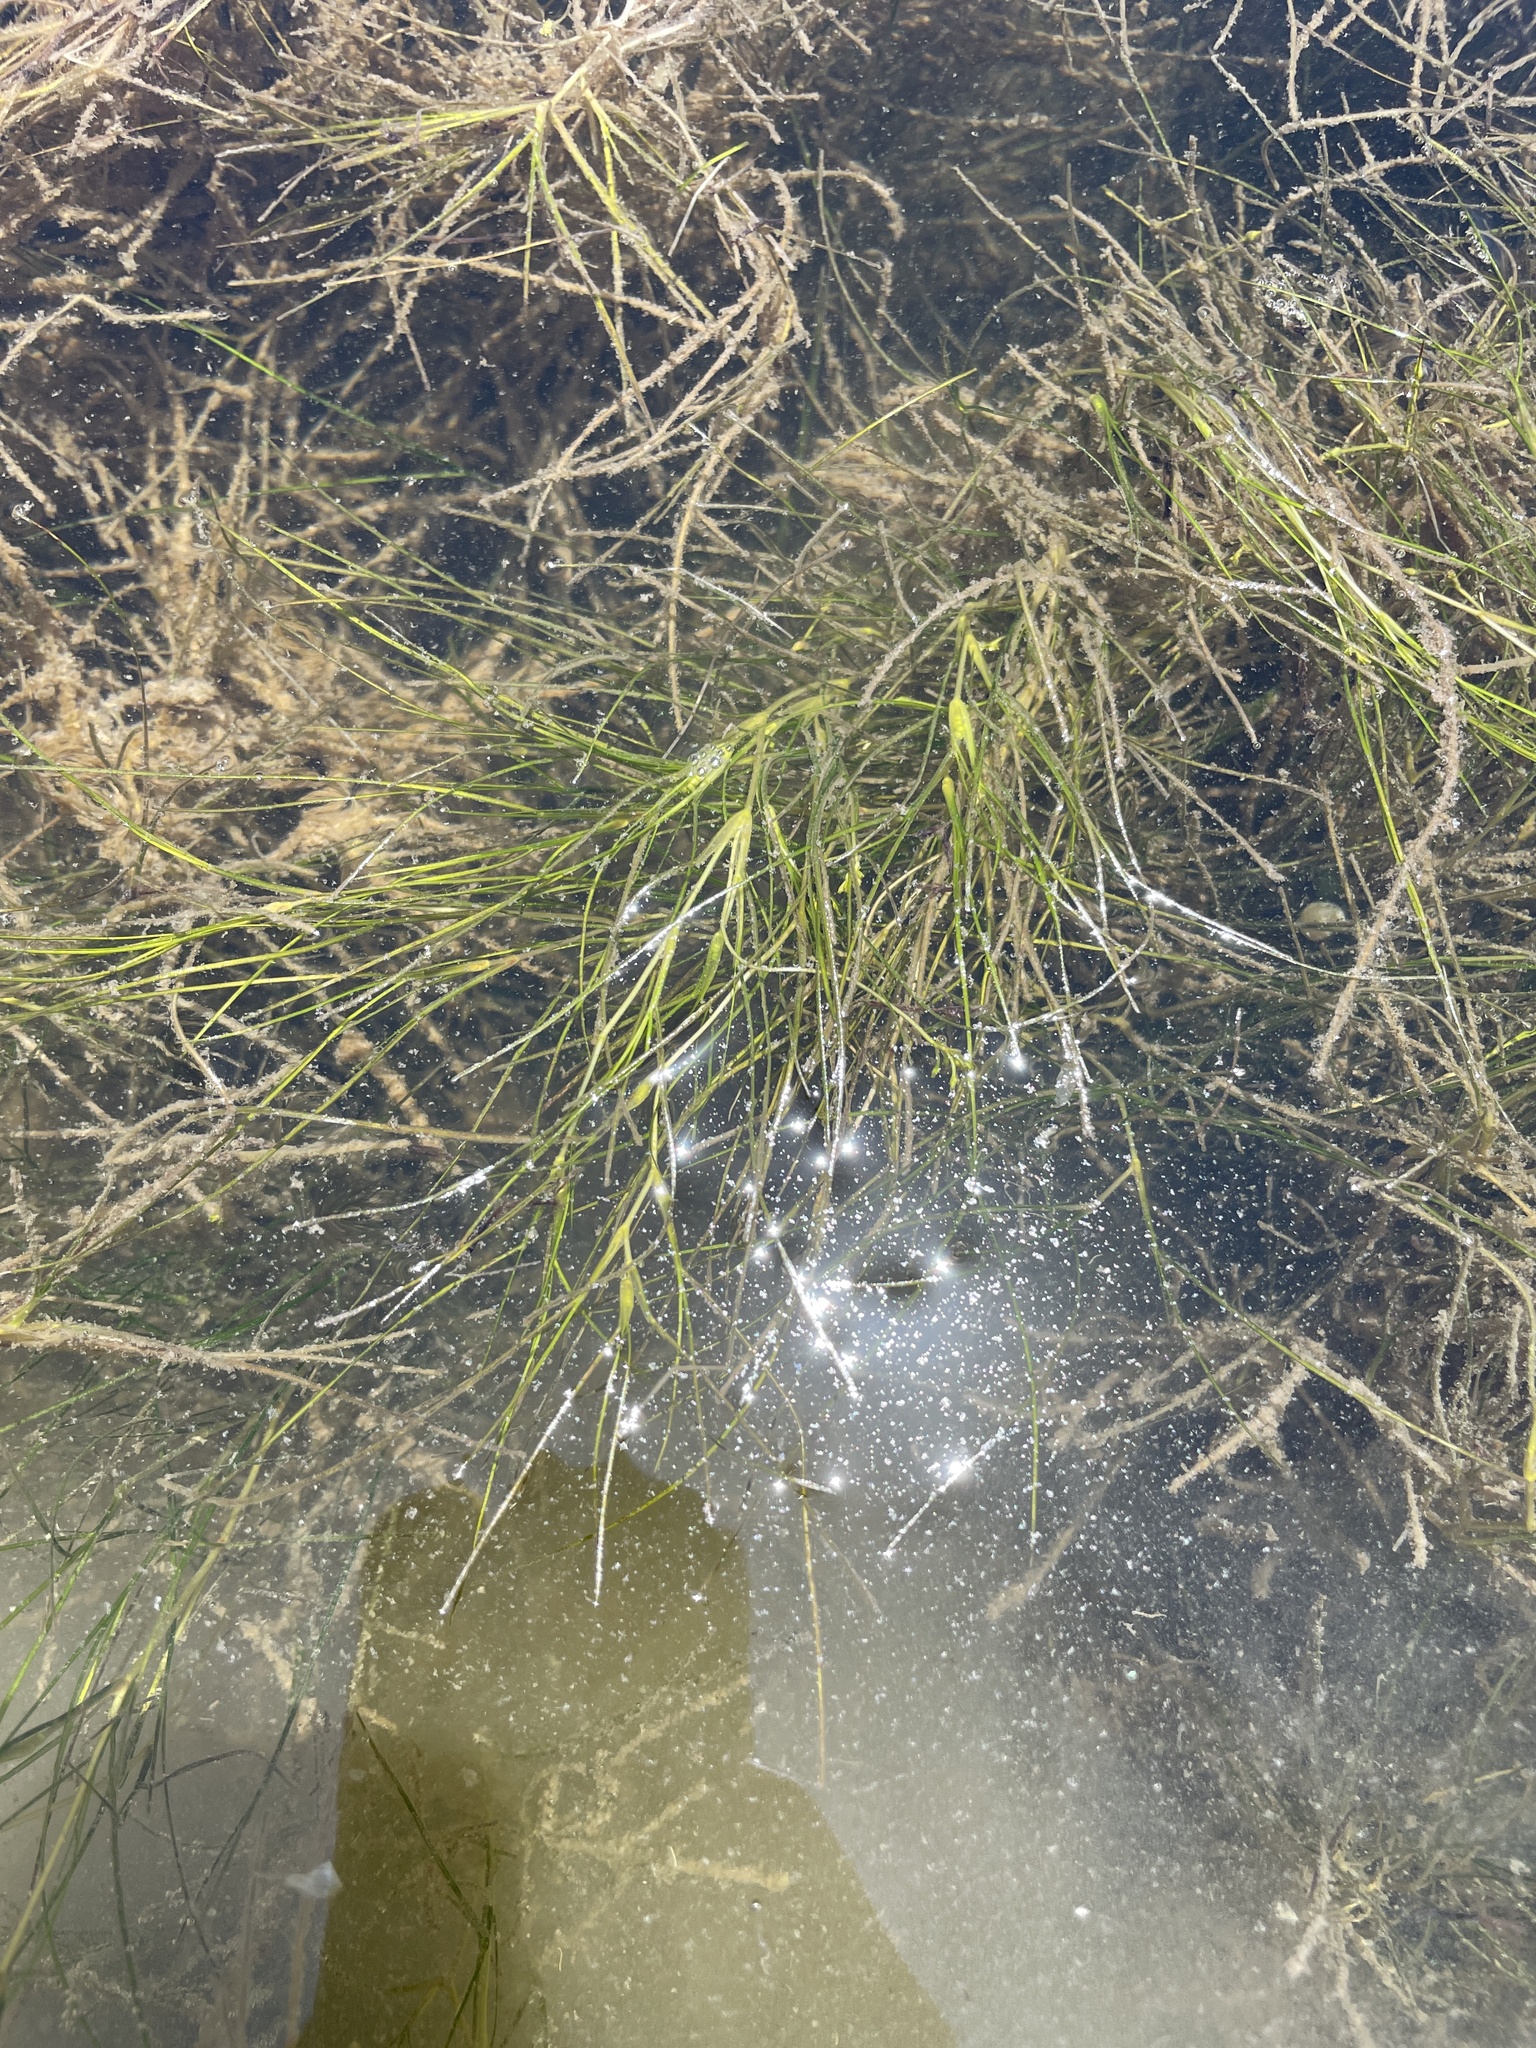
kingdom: Plantae
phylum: Tracheophyta
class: Liliopsida
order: Alismatales
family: Ruppiaceae
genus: Ruppia
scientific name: Ruppia maritima
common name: Beaked tasselweed
